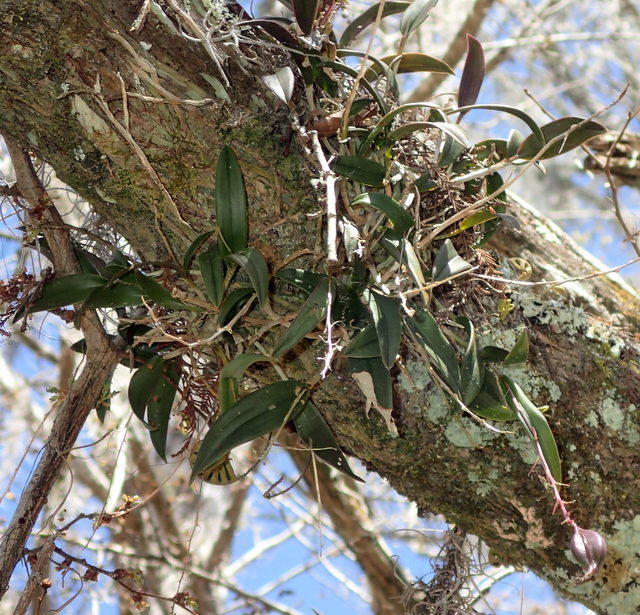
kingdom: Plantae
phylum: Tracheophyta
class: Liliopsida
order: Asparagales
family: Orchidaceae
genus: Epidendrum
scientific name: Epidendrum conopseum
